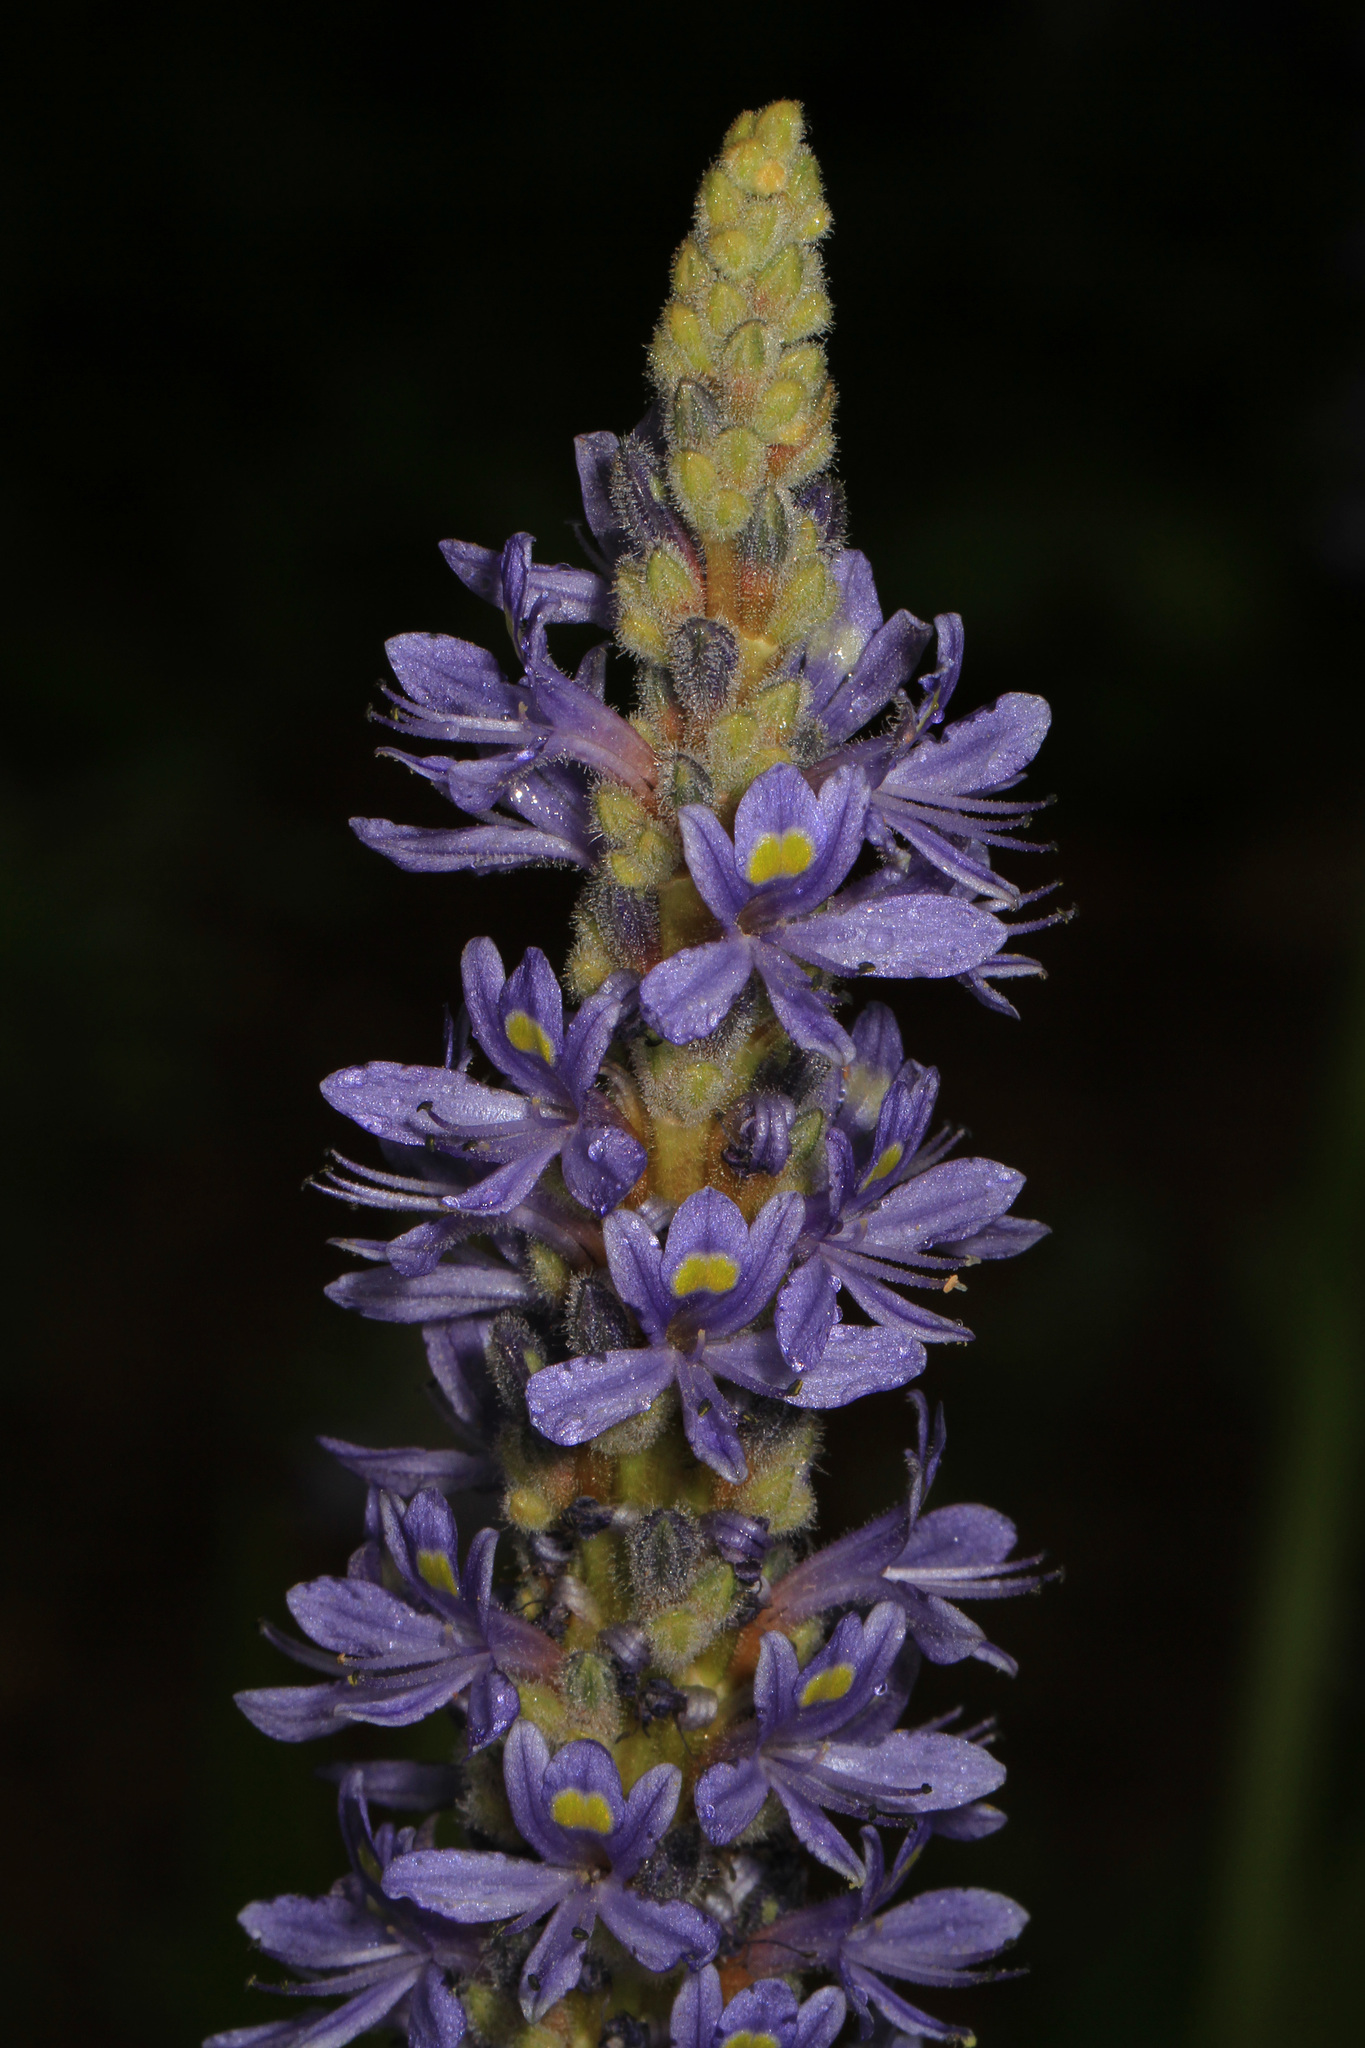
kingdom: Plantae
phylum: Tracheophyta
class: Liliopsida
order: Commelinales
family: Pontederiaceae
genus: Pontederia
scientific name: Pontederia cordata
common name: Pickerelweed
